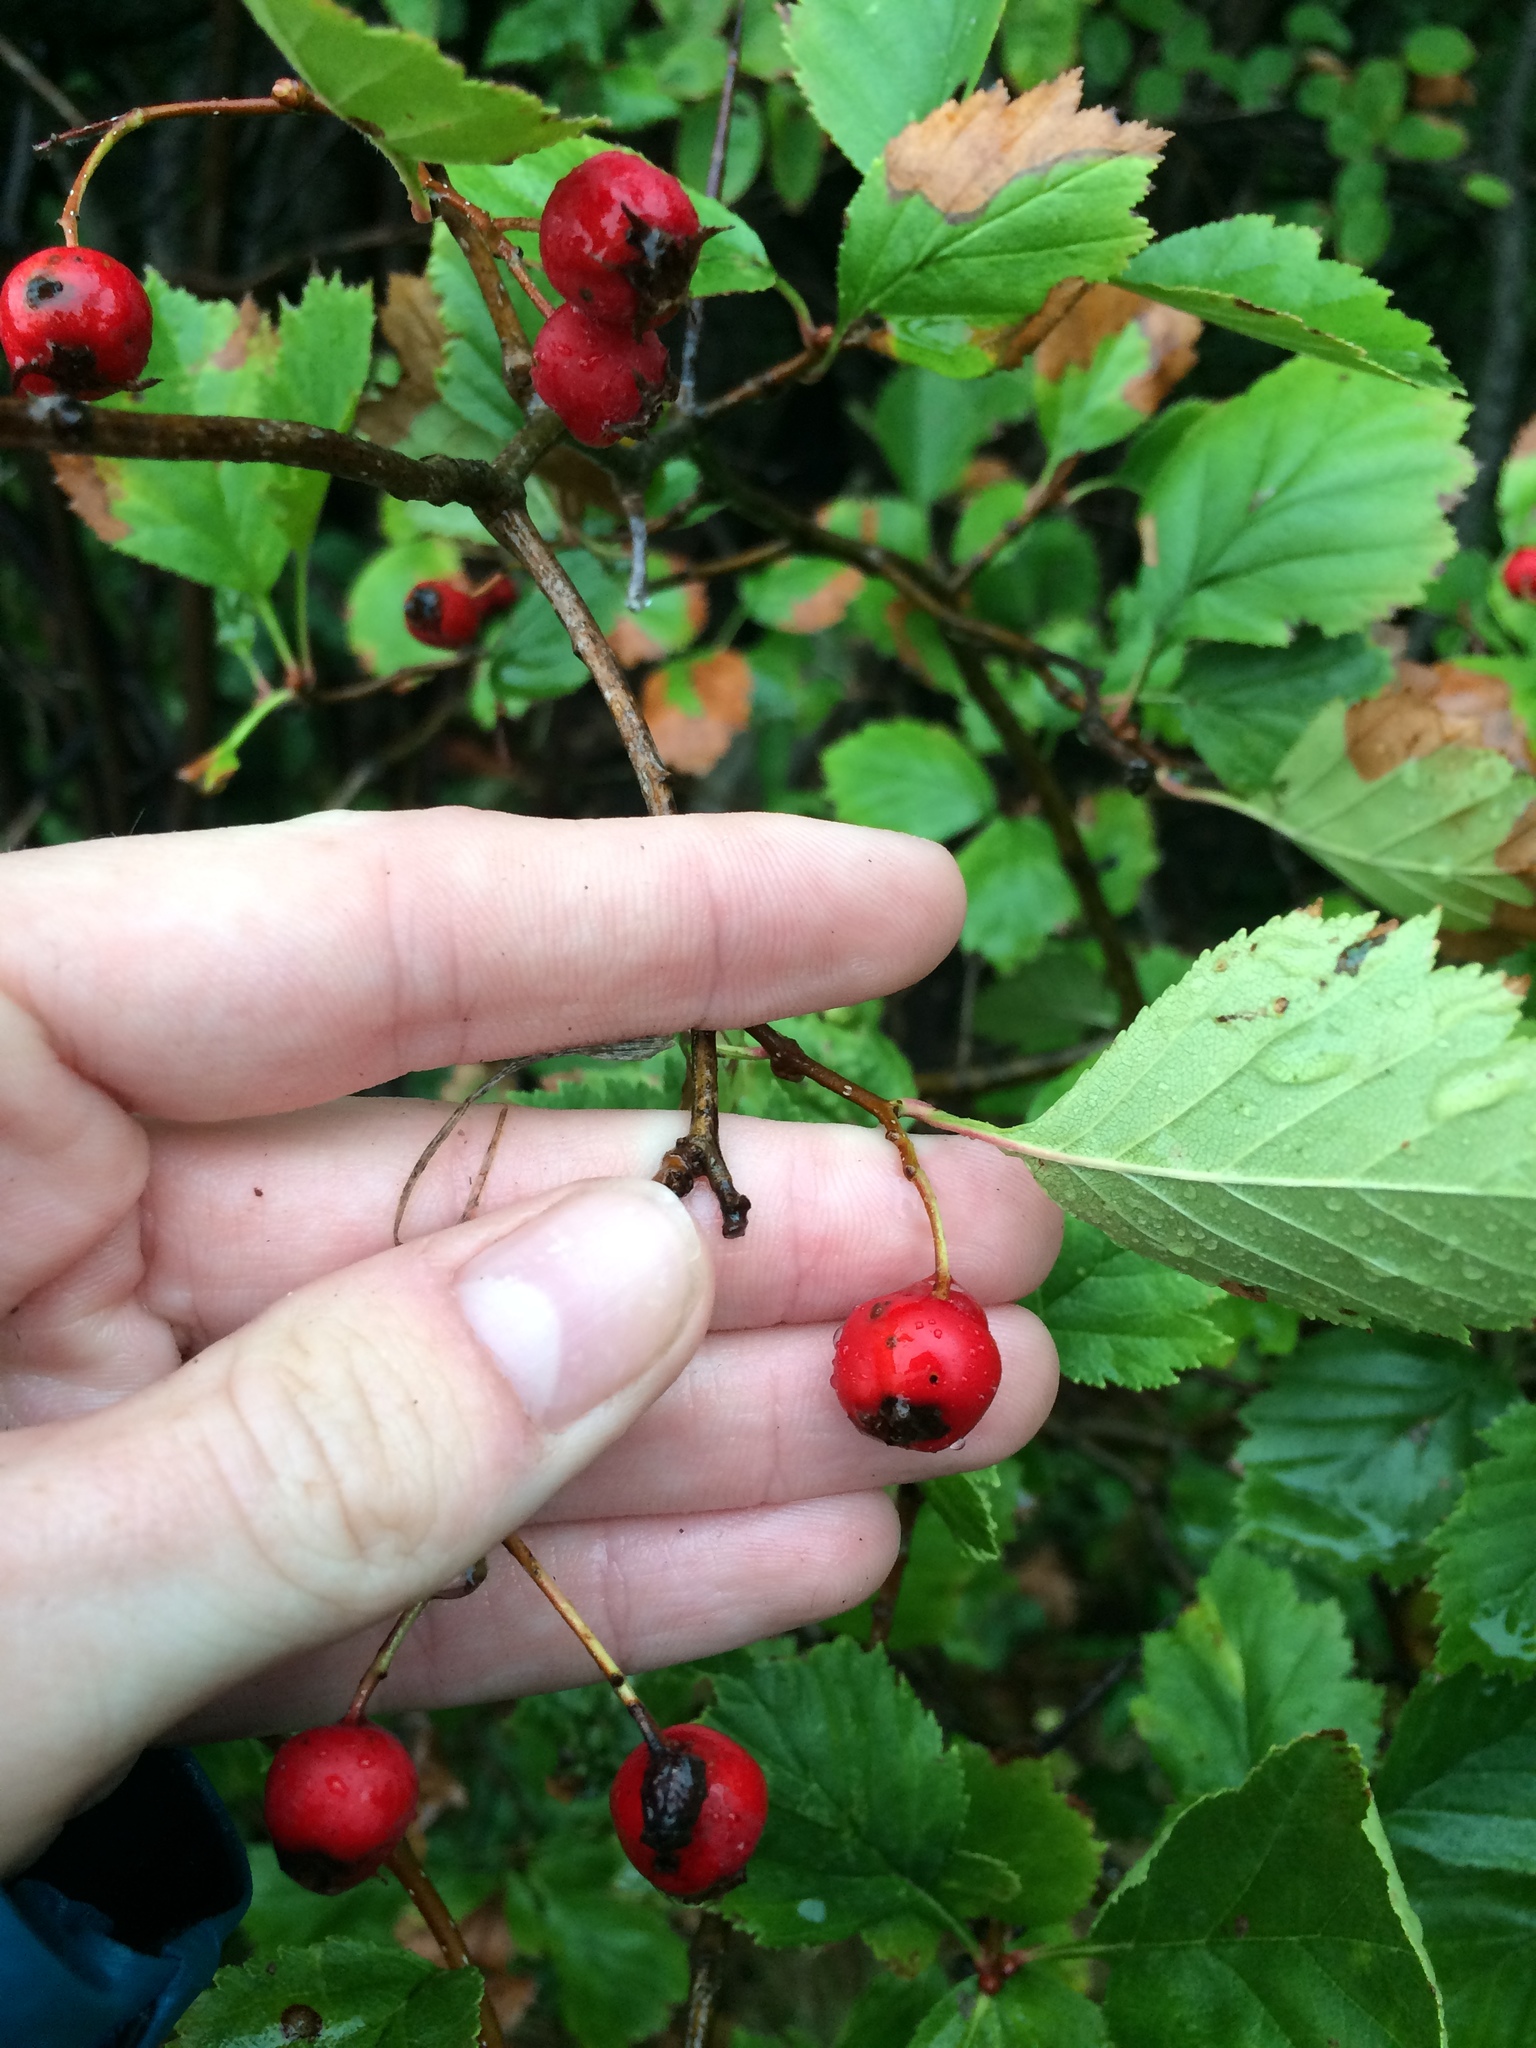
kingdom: Plantae
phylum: Tracheophyta
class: Magnoliopsida
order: Rosales
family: Rosaceae
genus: Crataegus
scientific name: Crataegus chrysocarpa
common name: Fire-berry hawthorn
